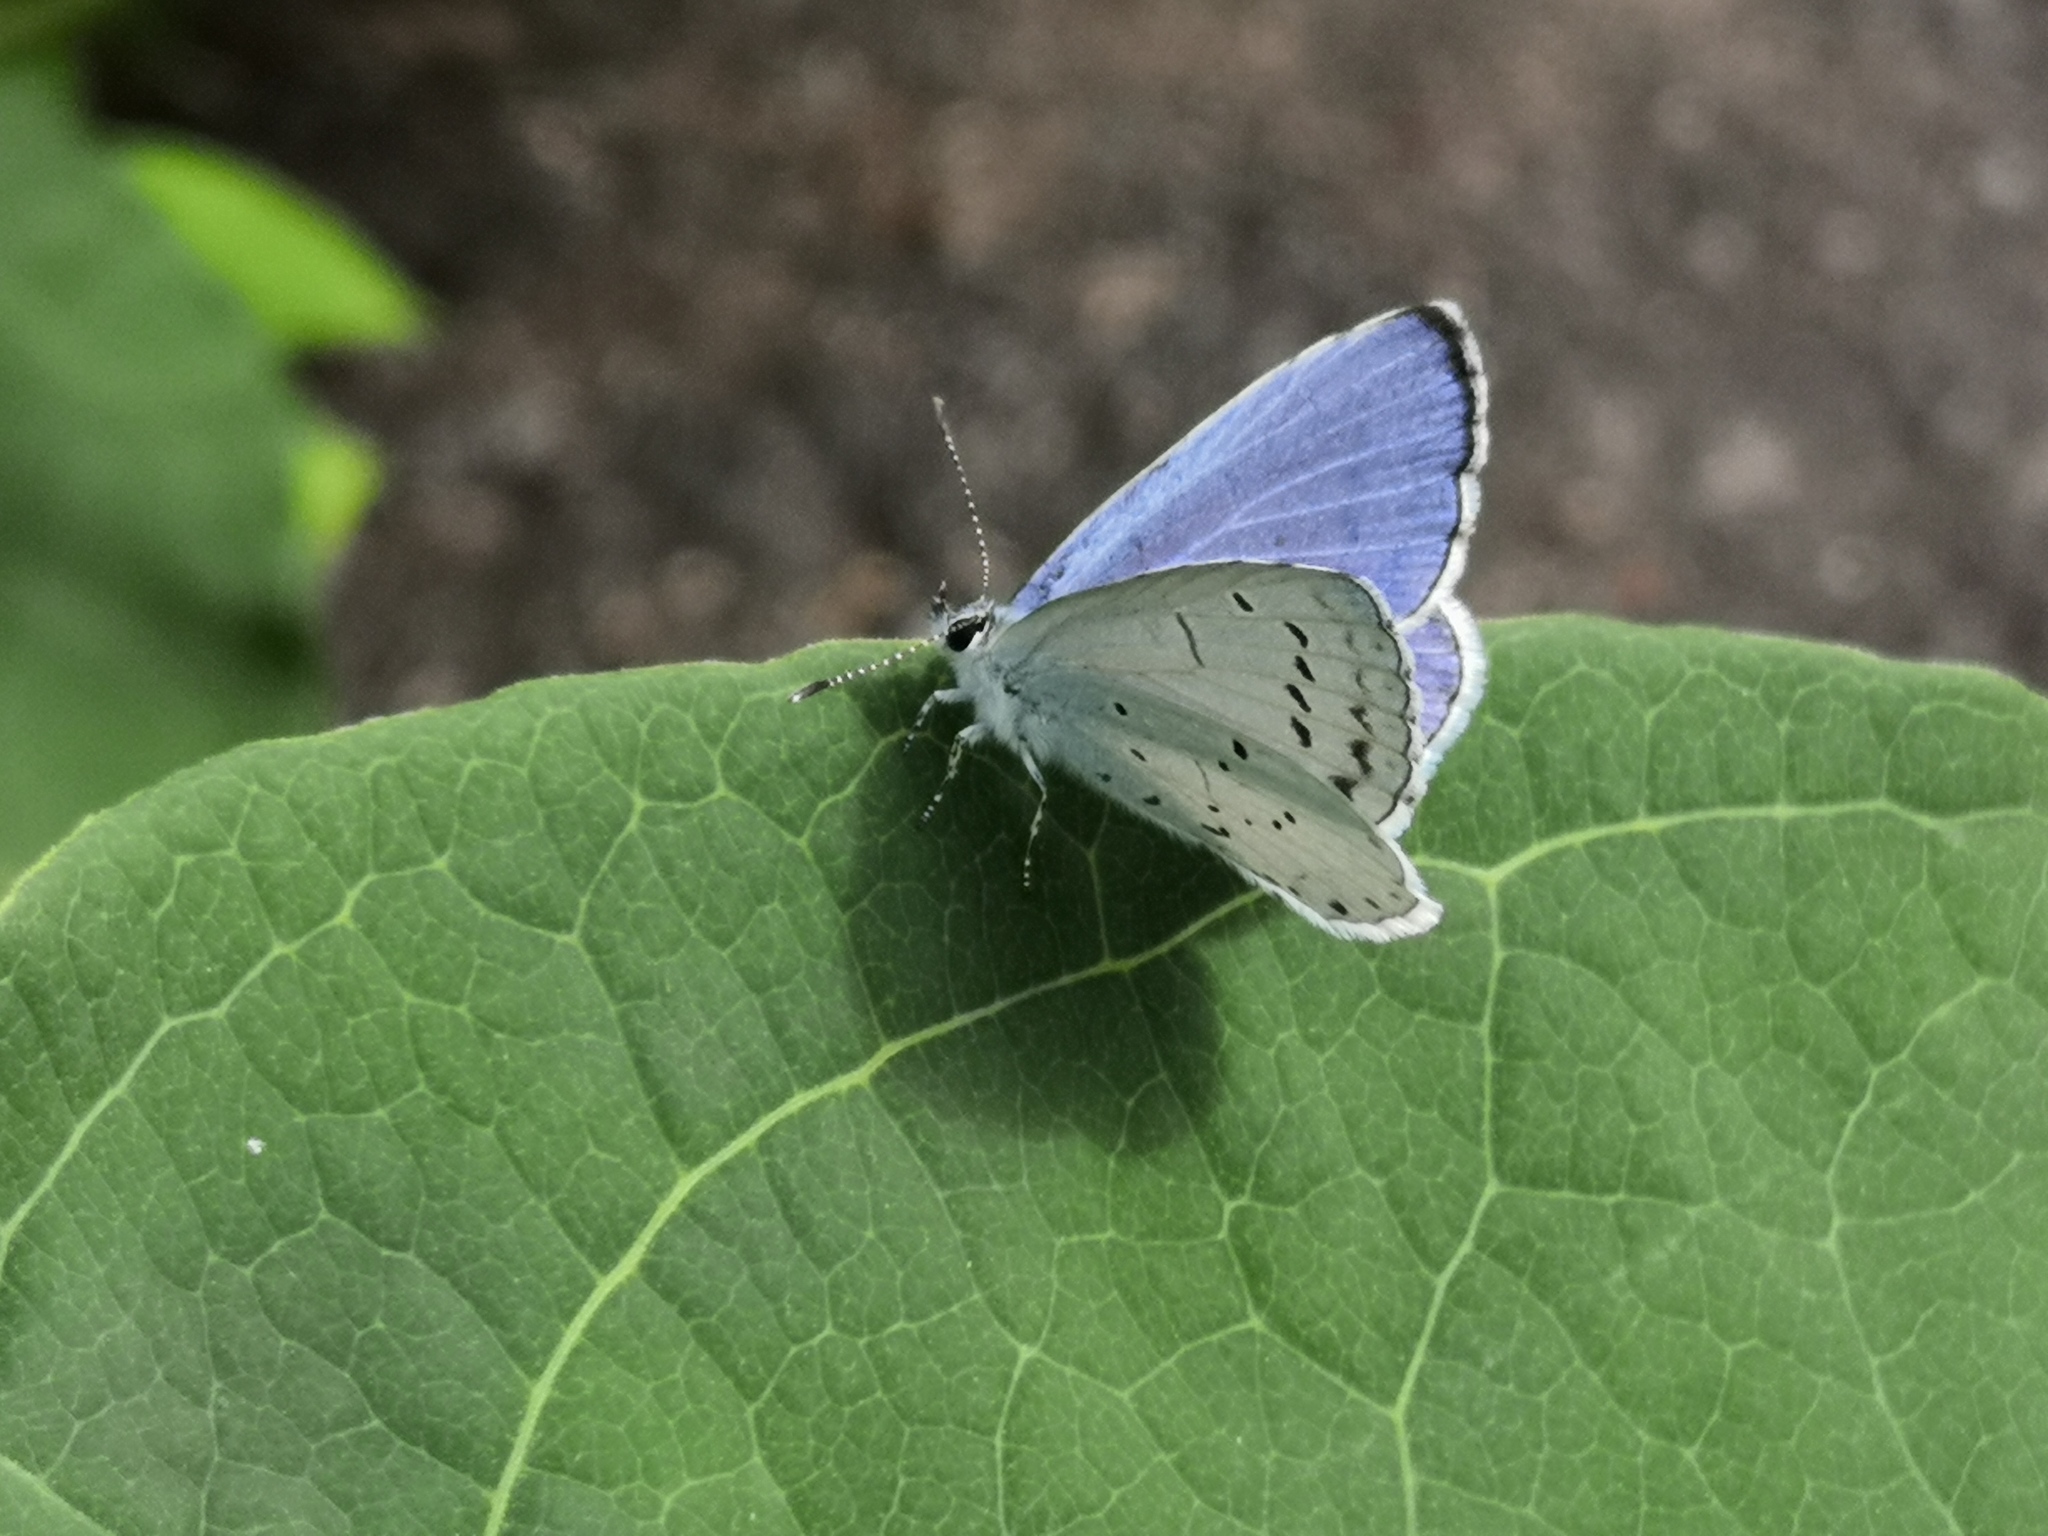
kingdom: Animalia
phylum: Arthropoda
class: Insecta
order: Lepidoptera
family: Lycaenidae
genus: Celastrina
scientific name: Celastrina argiolus
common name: Holly blue
